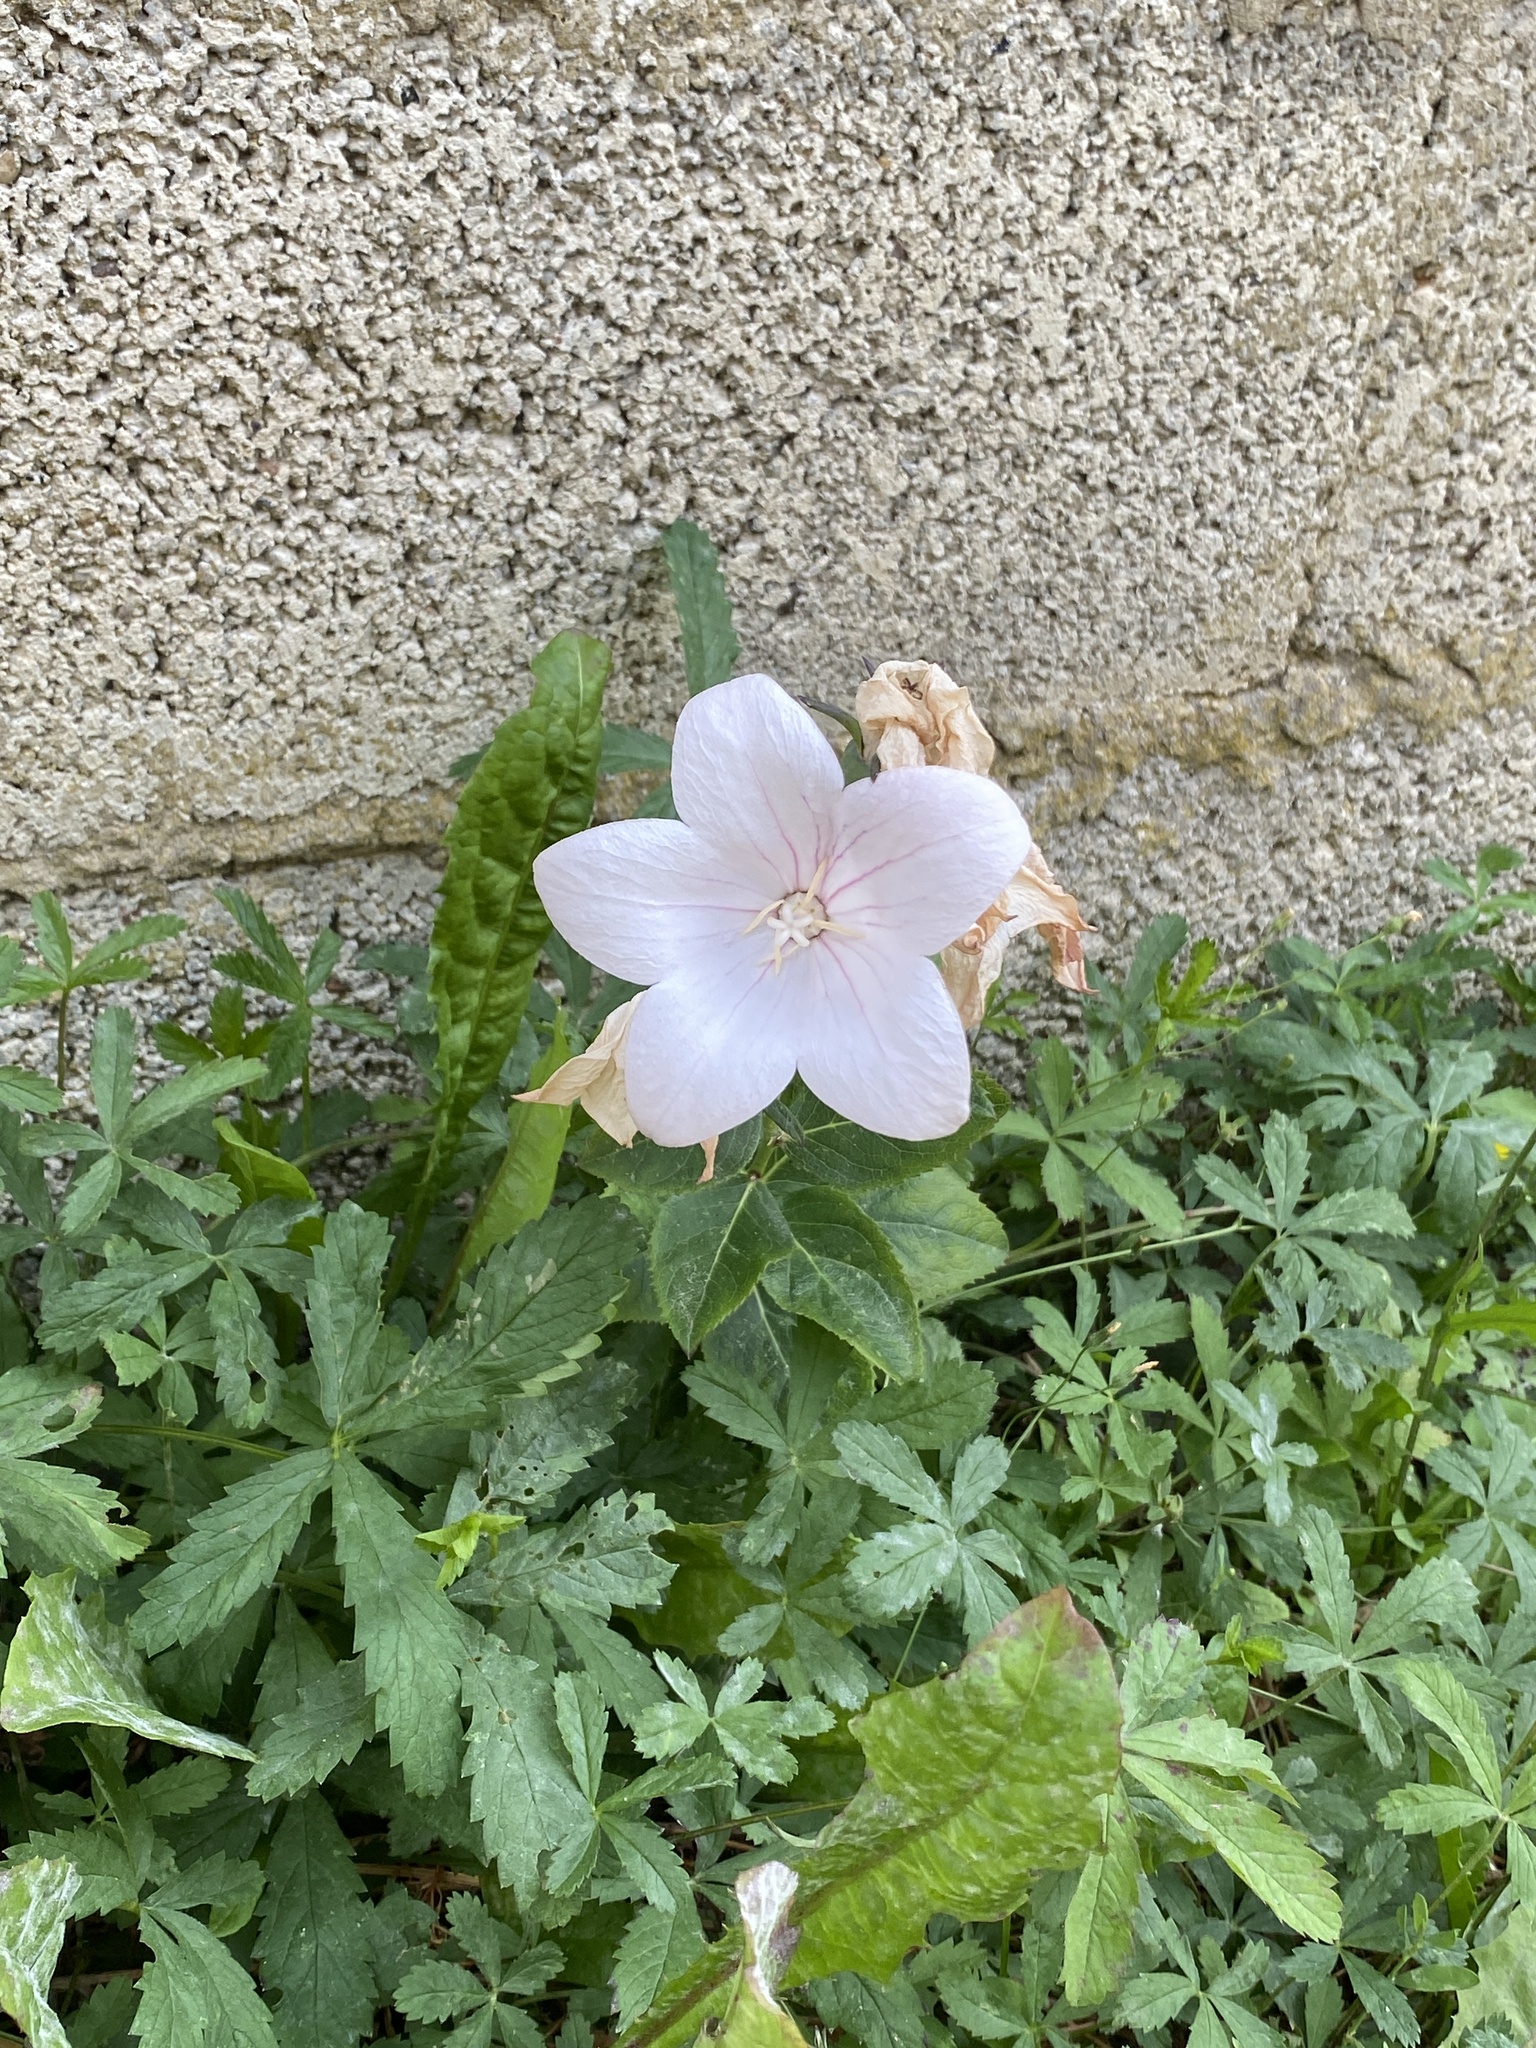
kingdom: Plantae
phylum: Tracheophyta
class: Magnoliopsida
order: Asterales
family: Campanulaceae
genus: Platycodon
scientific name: Platycodon grandiflorus
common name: Balloon-flower
